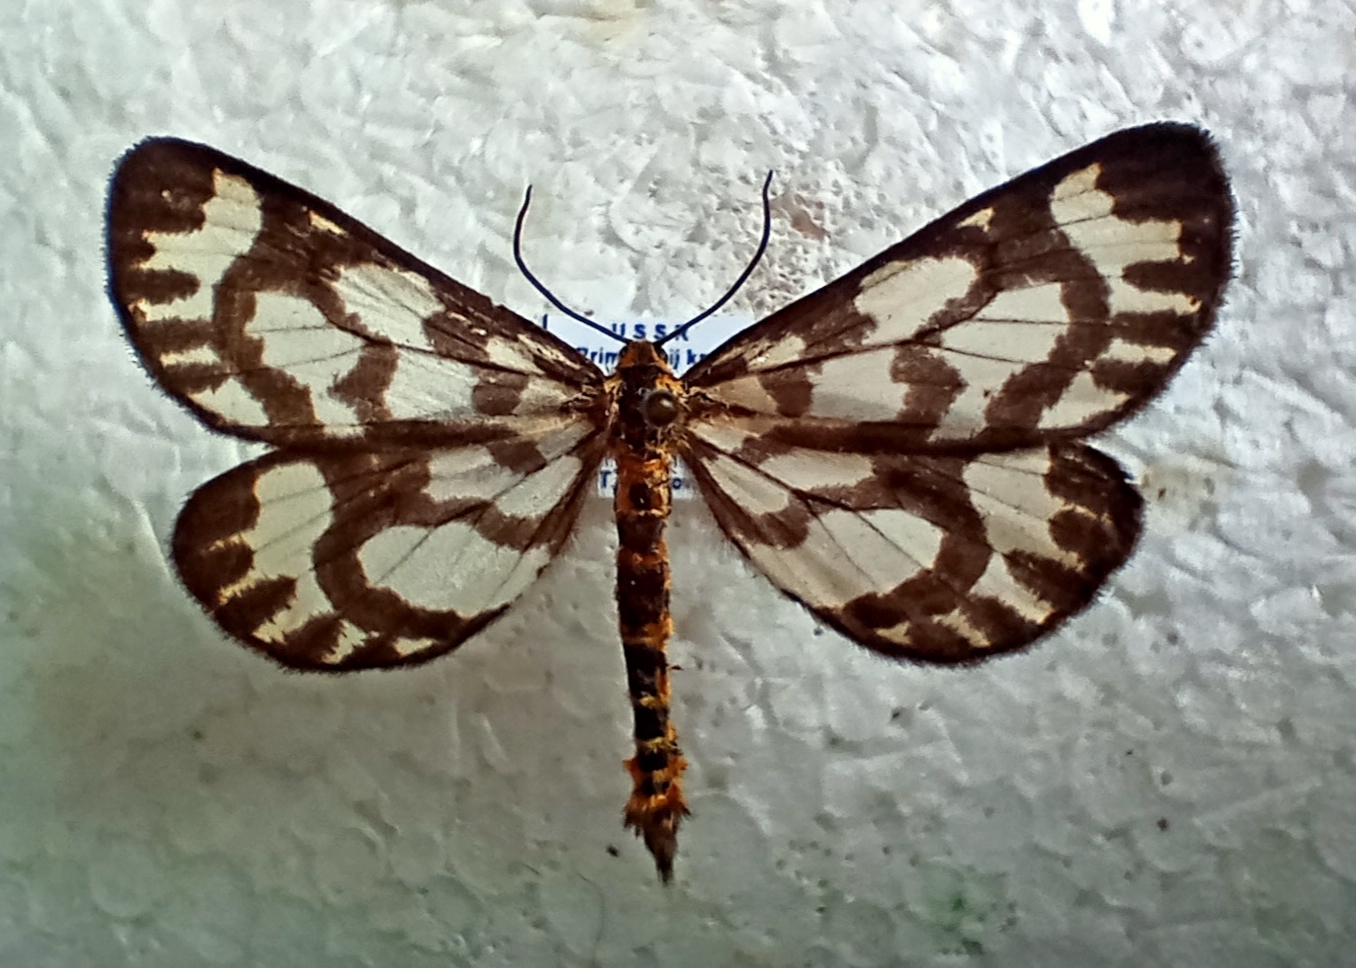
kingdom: Animalia
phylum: Arthropoda
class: Insecta
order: Lepidoptera
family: Geometridae
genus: Cystidia
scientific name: Cystidia couaggaria
